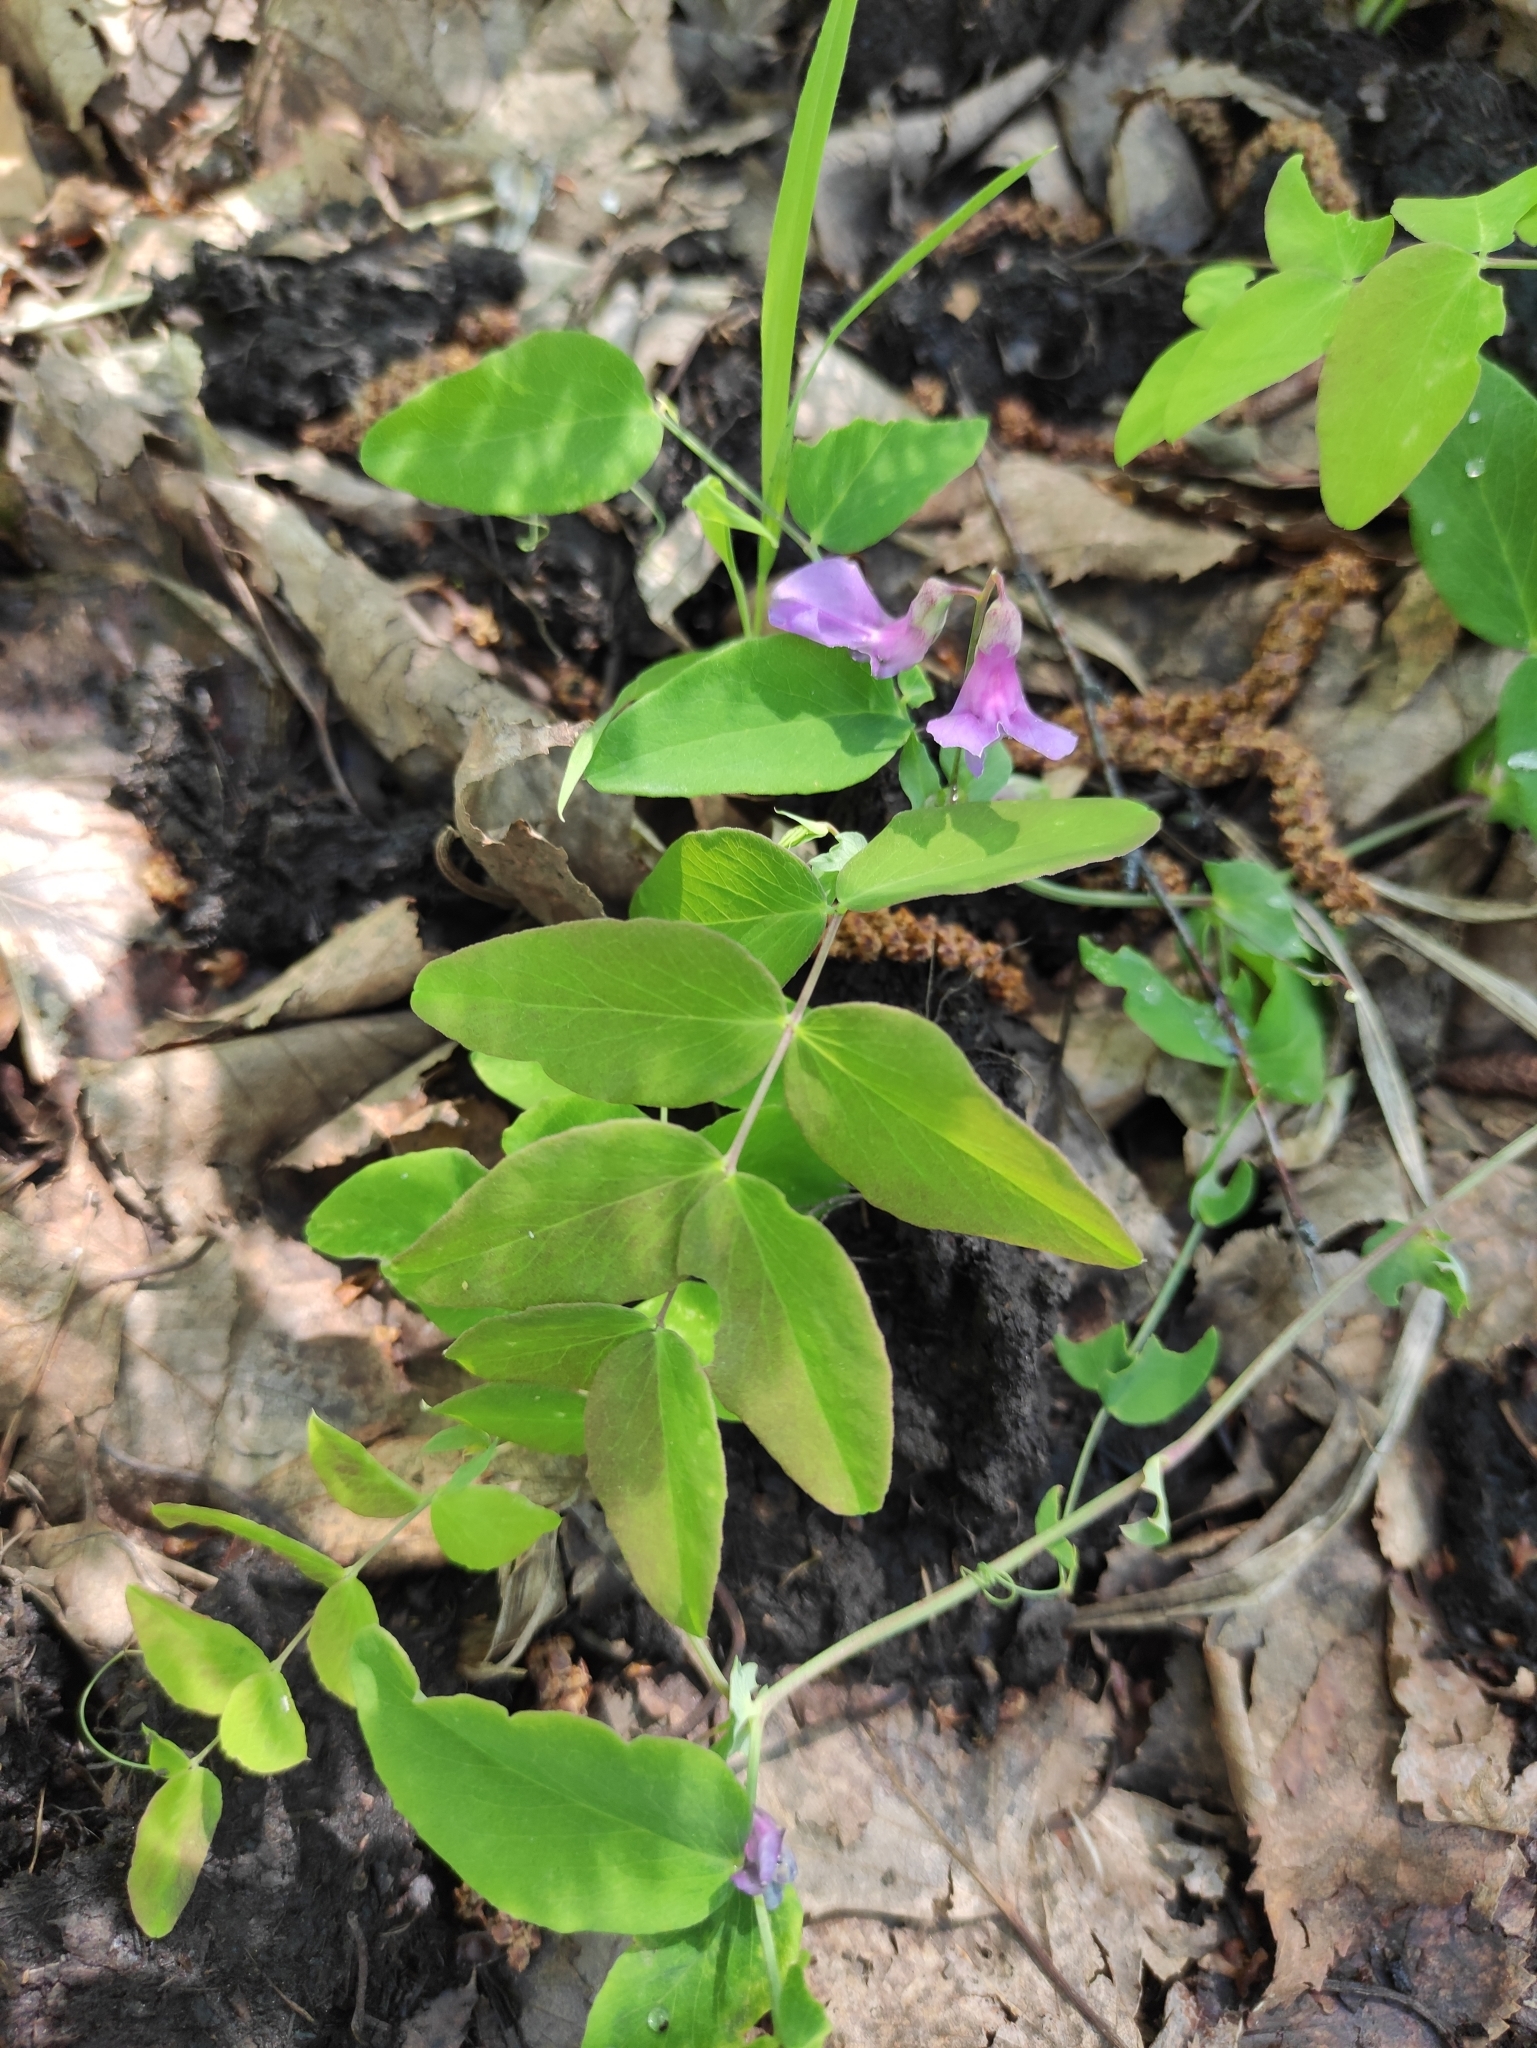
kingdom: Plantae
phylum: Tracheophyta
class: Magnoliopsida
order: Fabales
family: Fabaceae
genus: Lathyrus
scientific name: Lathyrus humilis
